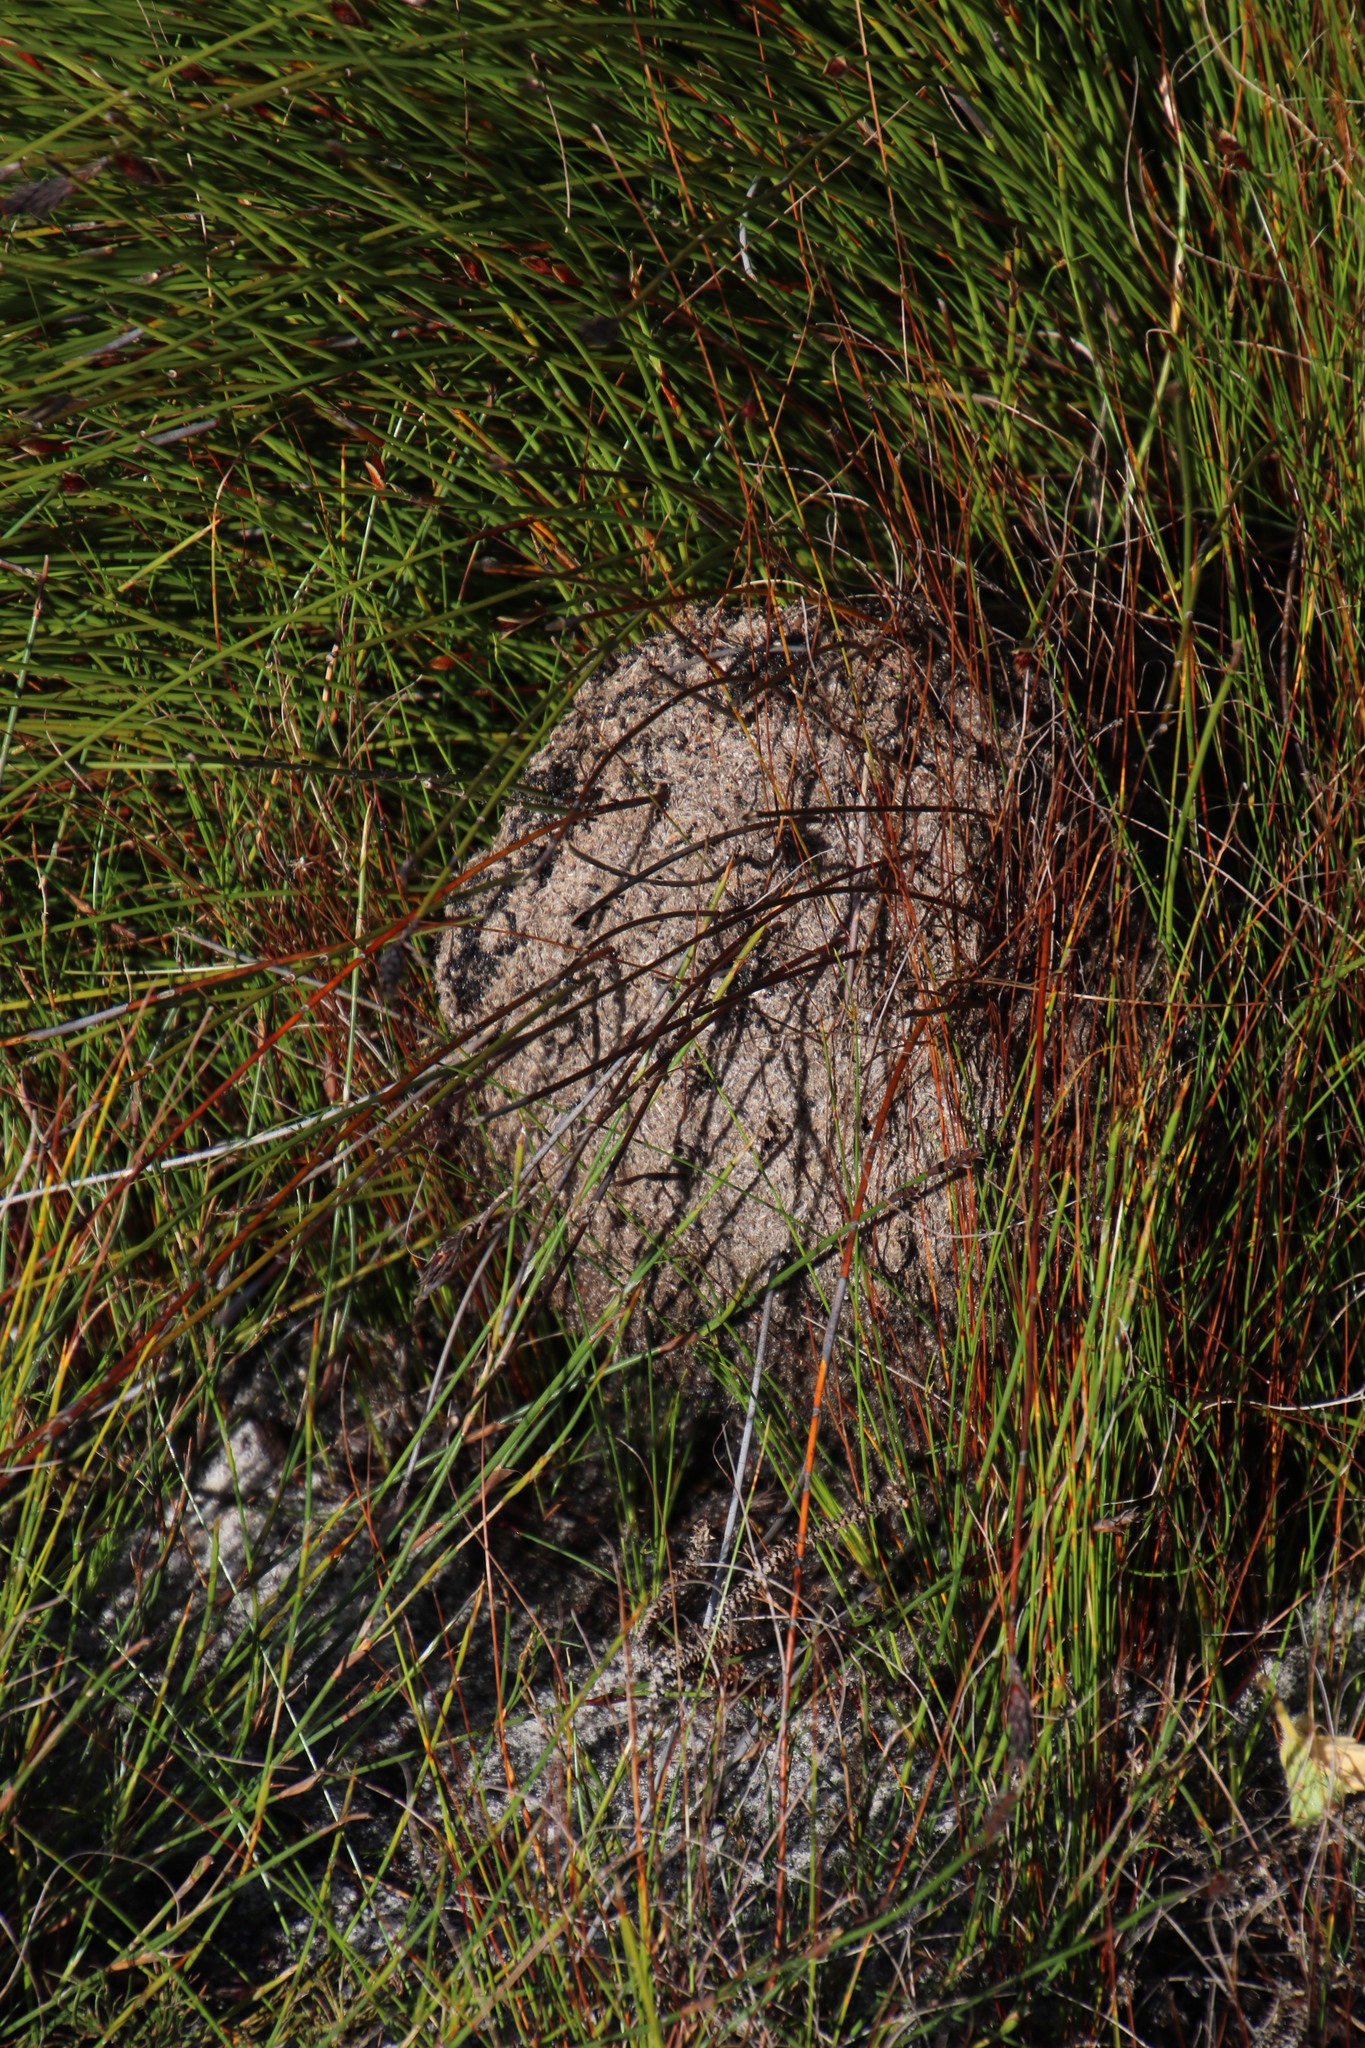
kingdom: Animalia
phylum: Arthropoda
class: Insecta
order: Hymenoptera
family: Formicidae
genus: Crematogaster
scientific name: Crematogaster peringueyi
